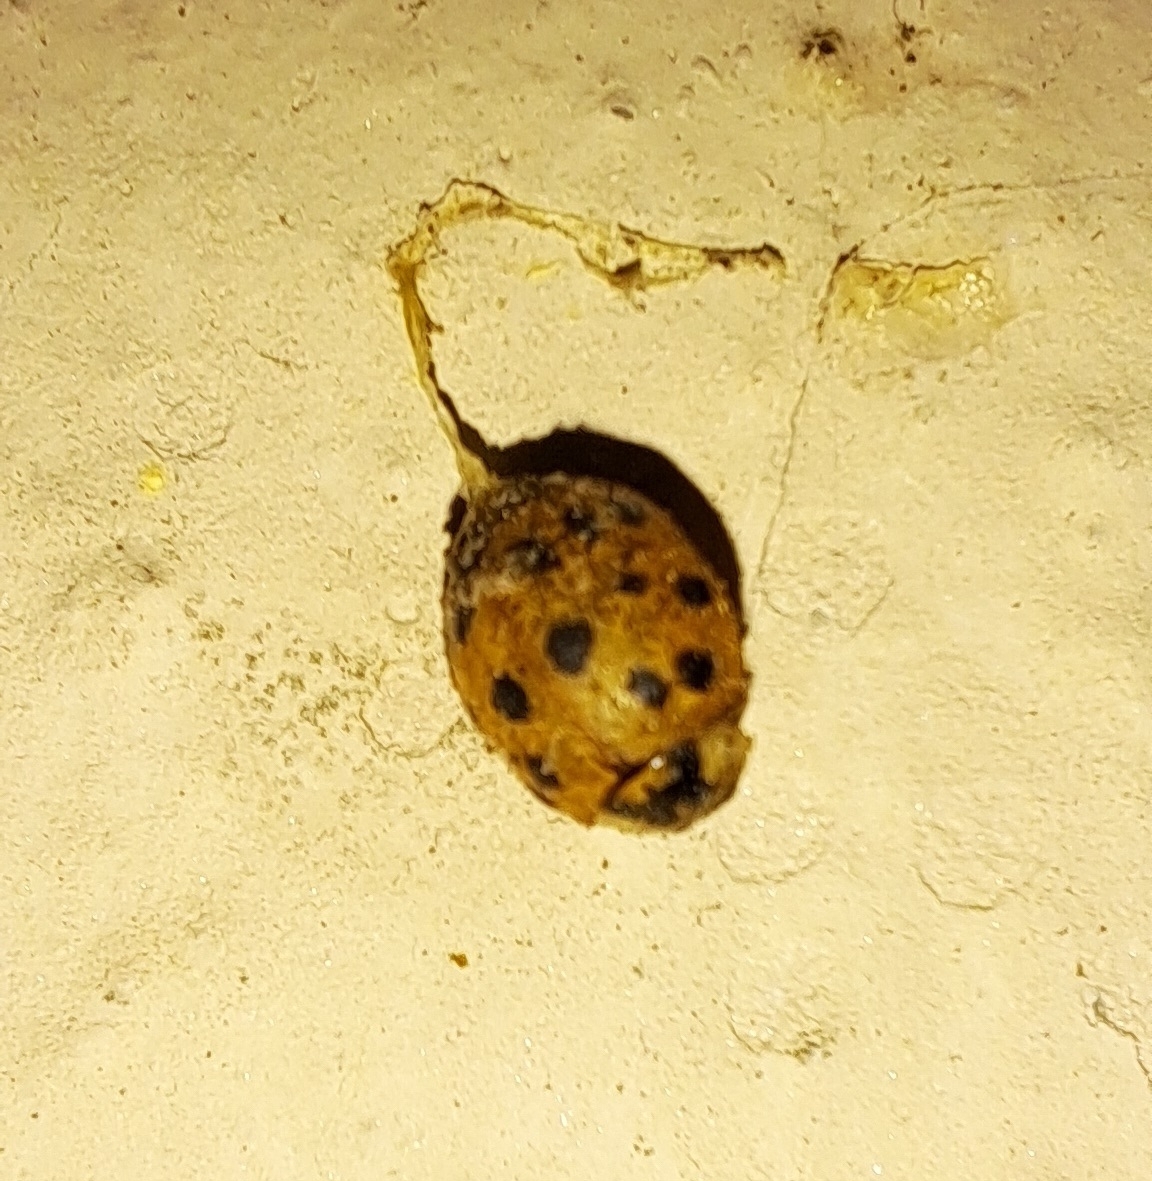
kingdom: Animalia
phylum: Arthropoda
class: Insecta
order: Coleoptera
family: Coccinellidae
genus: Harmonia
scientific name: Harmonia axyridis
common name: Harlequin ladybird
